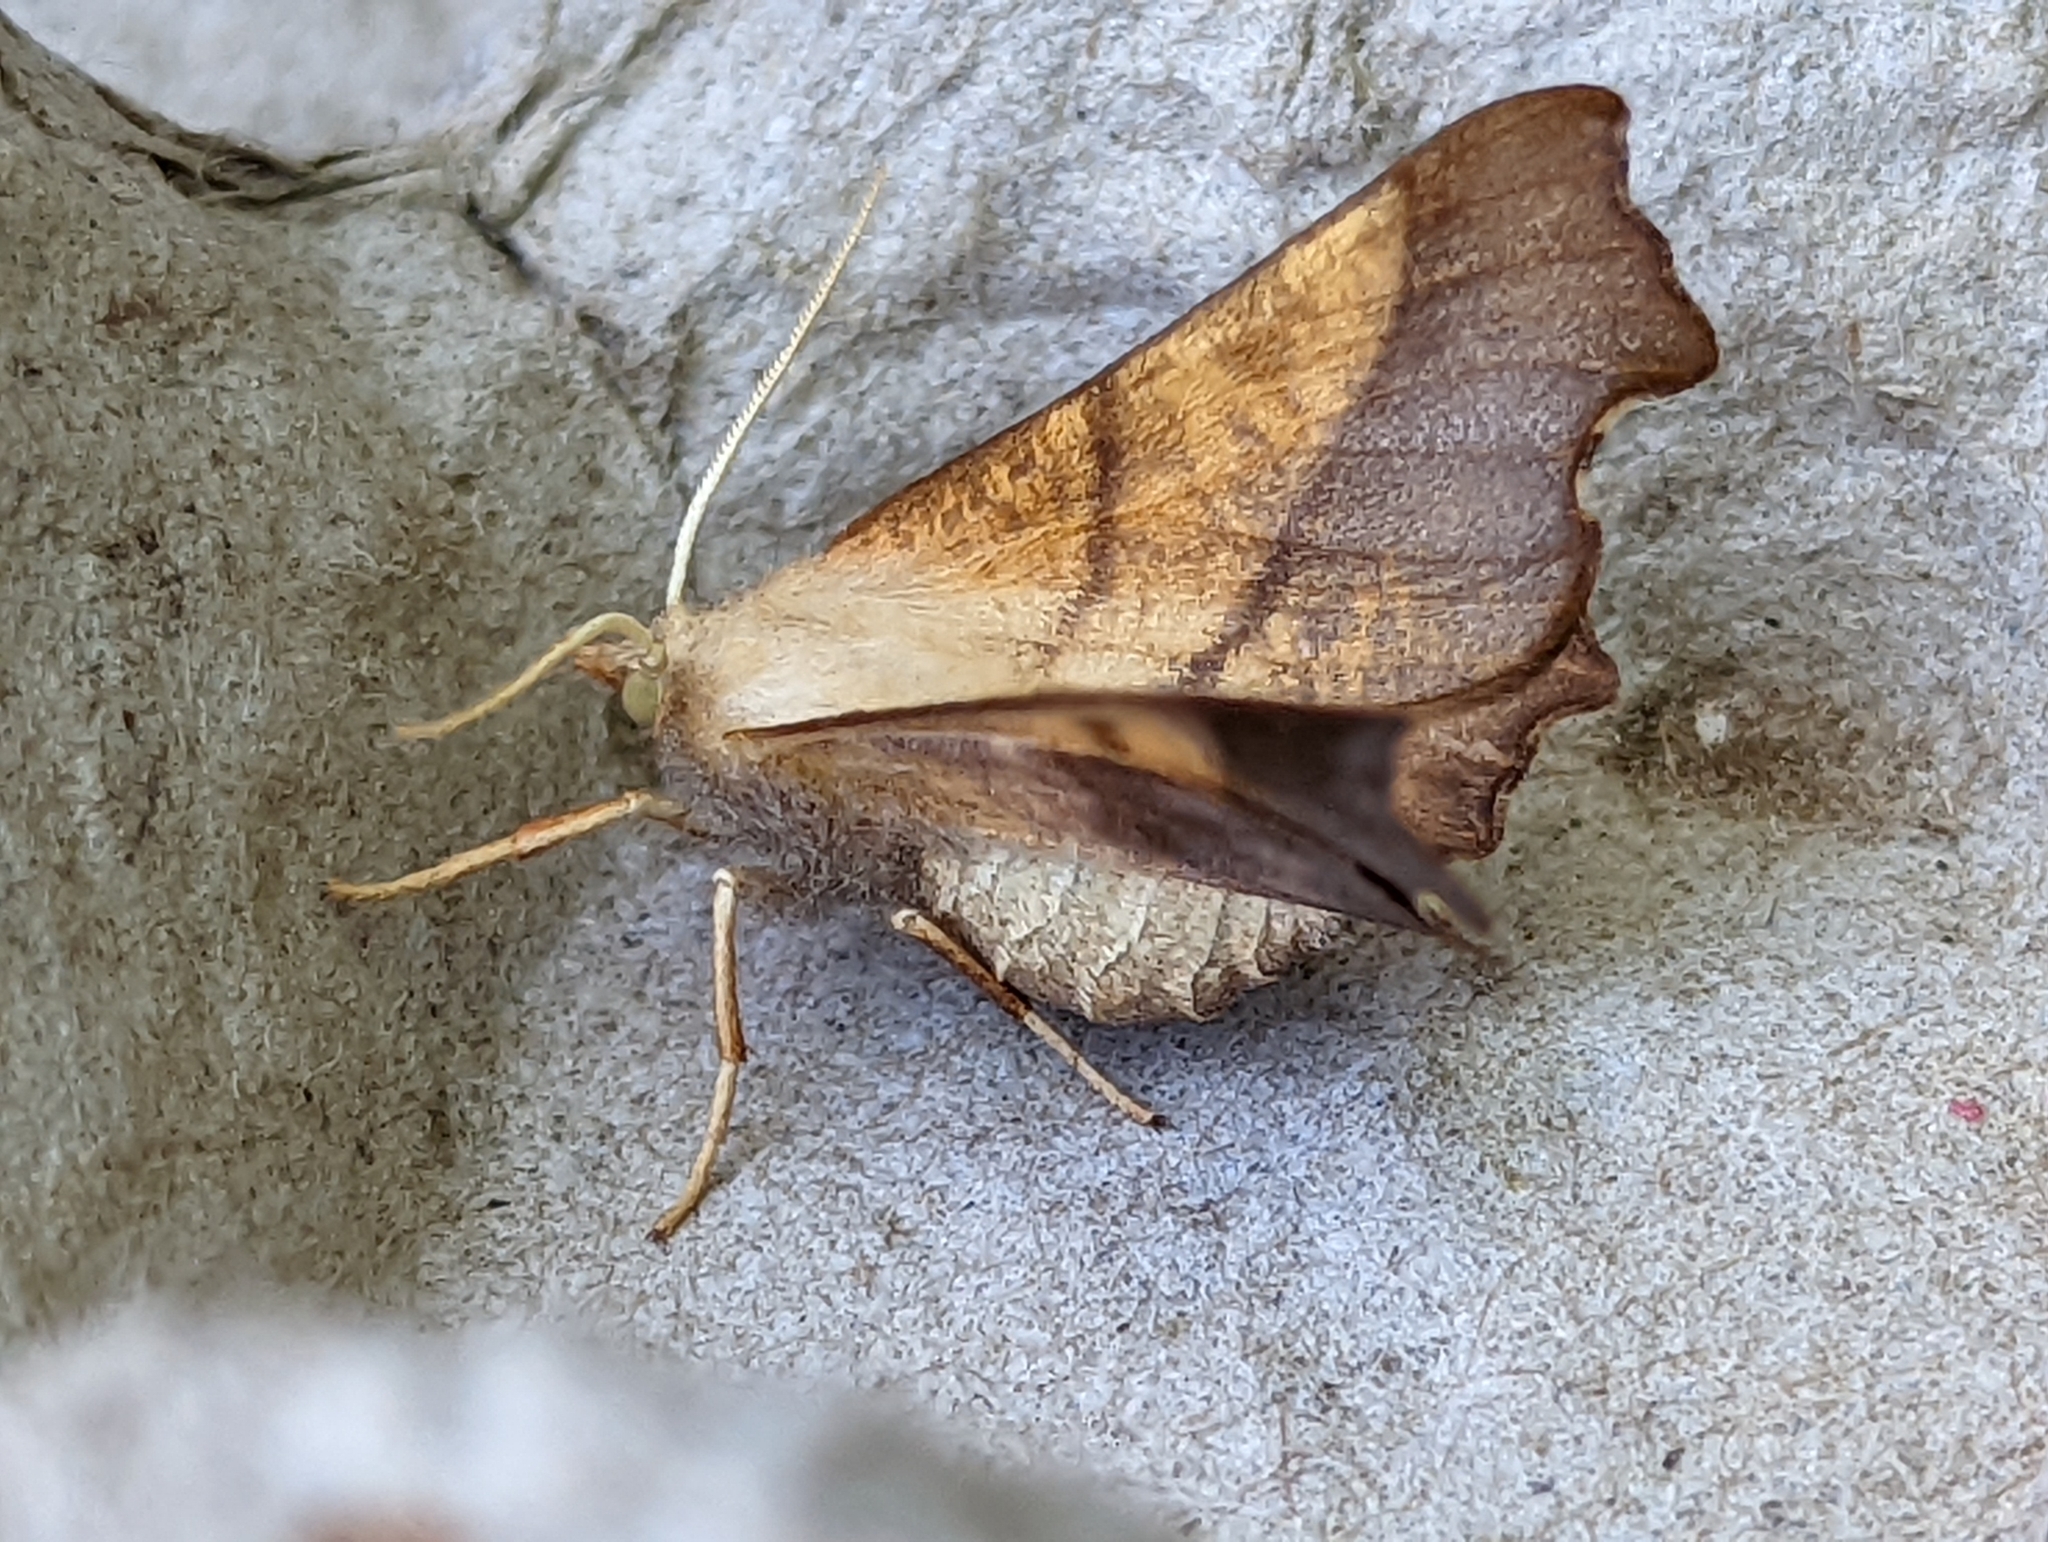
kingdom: Animalia
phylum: Arthropoda
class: Insecta
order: Lepidoptera
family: Geometridae
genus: Ennomos
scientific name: Ennomos fuscantaria
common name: Dusky thorn
